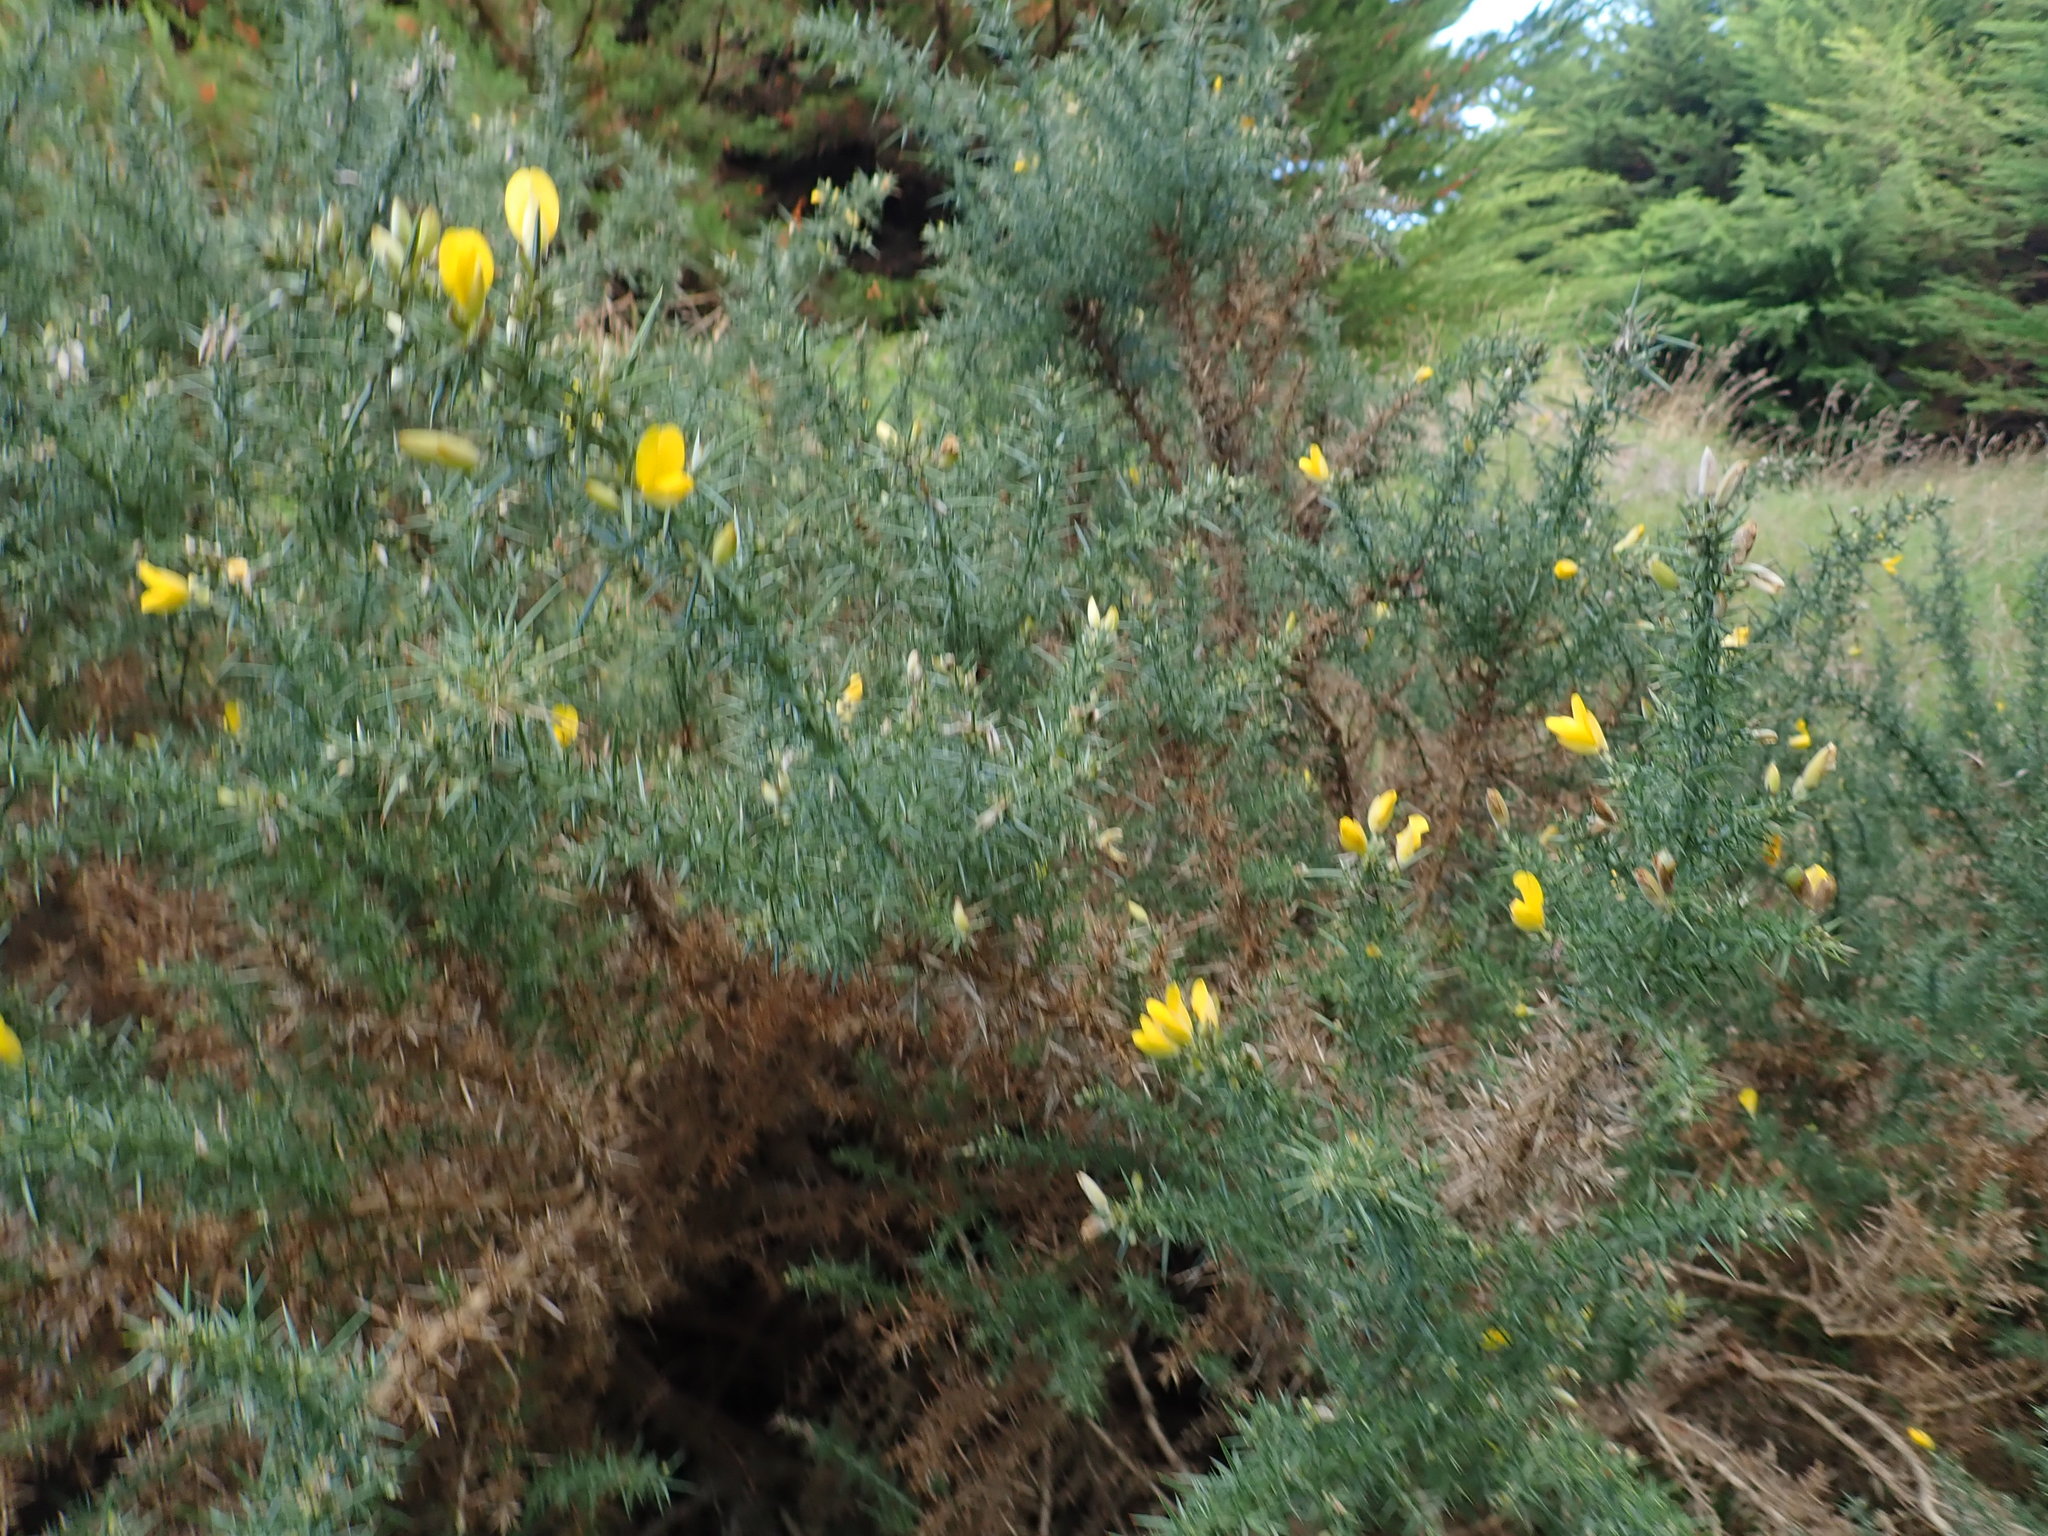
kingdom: Plantae
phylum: Tracheophyta
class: Magnoliopsida
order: Fabales
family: Fabaceae
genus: Ulex
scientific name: Ulex europaeus
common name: Common gorse
